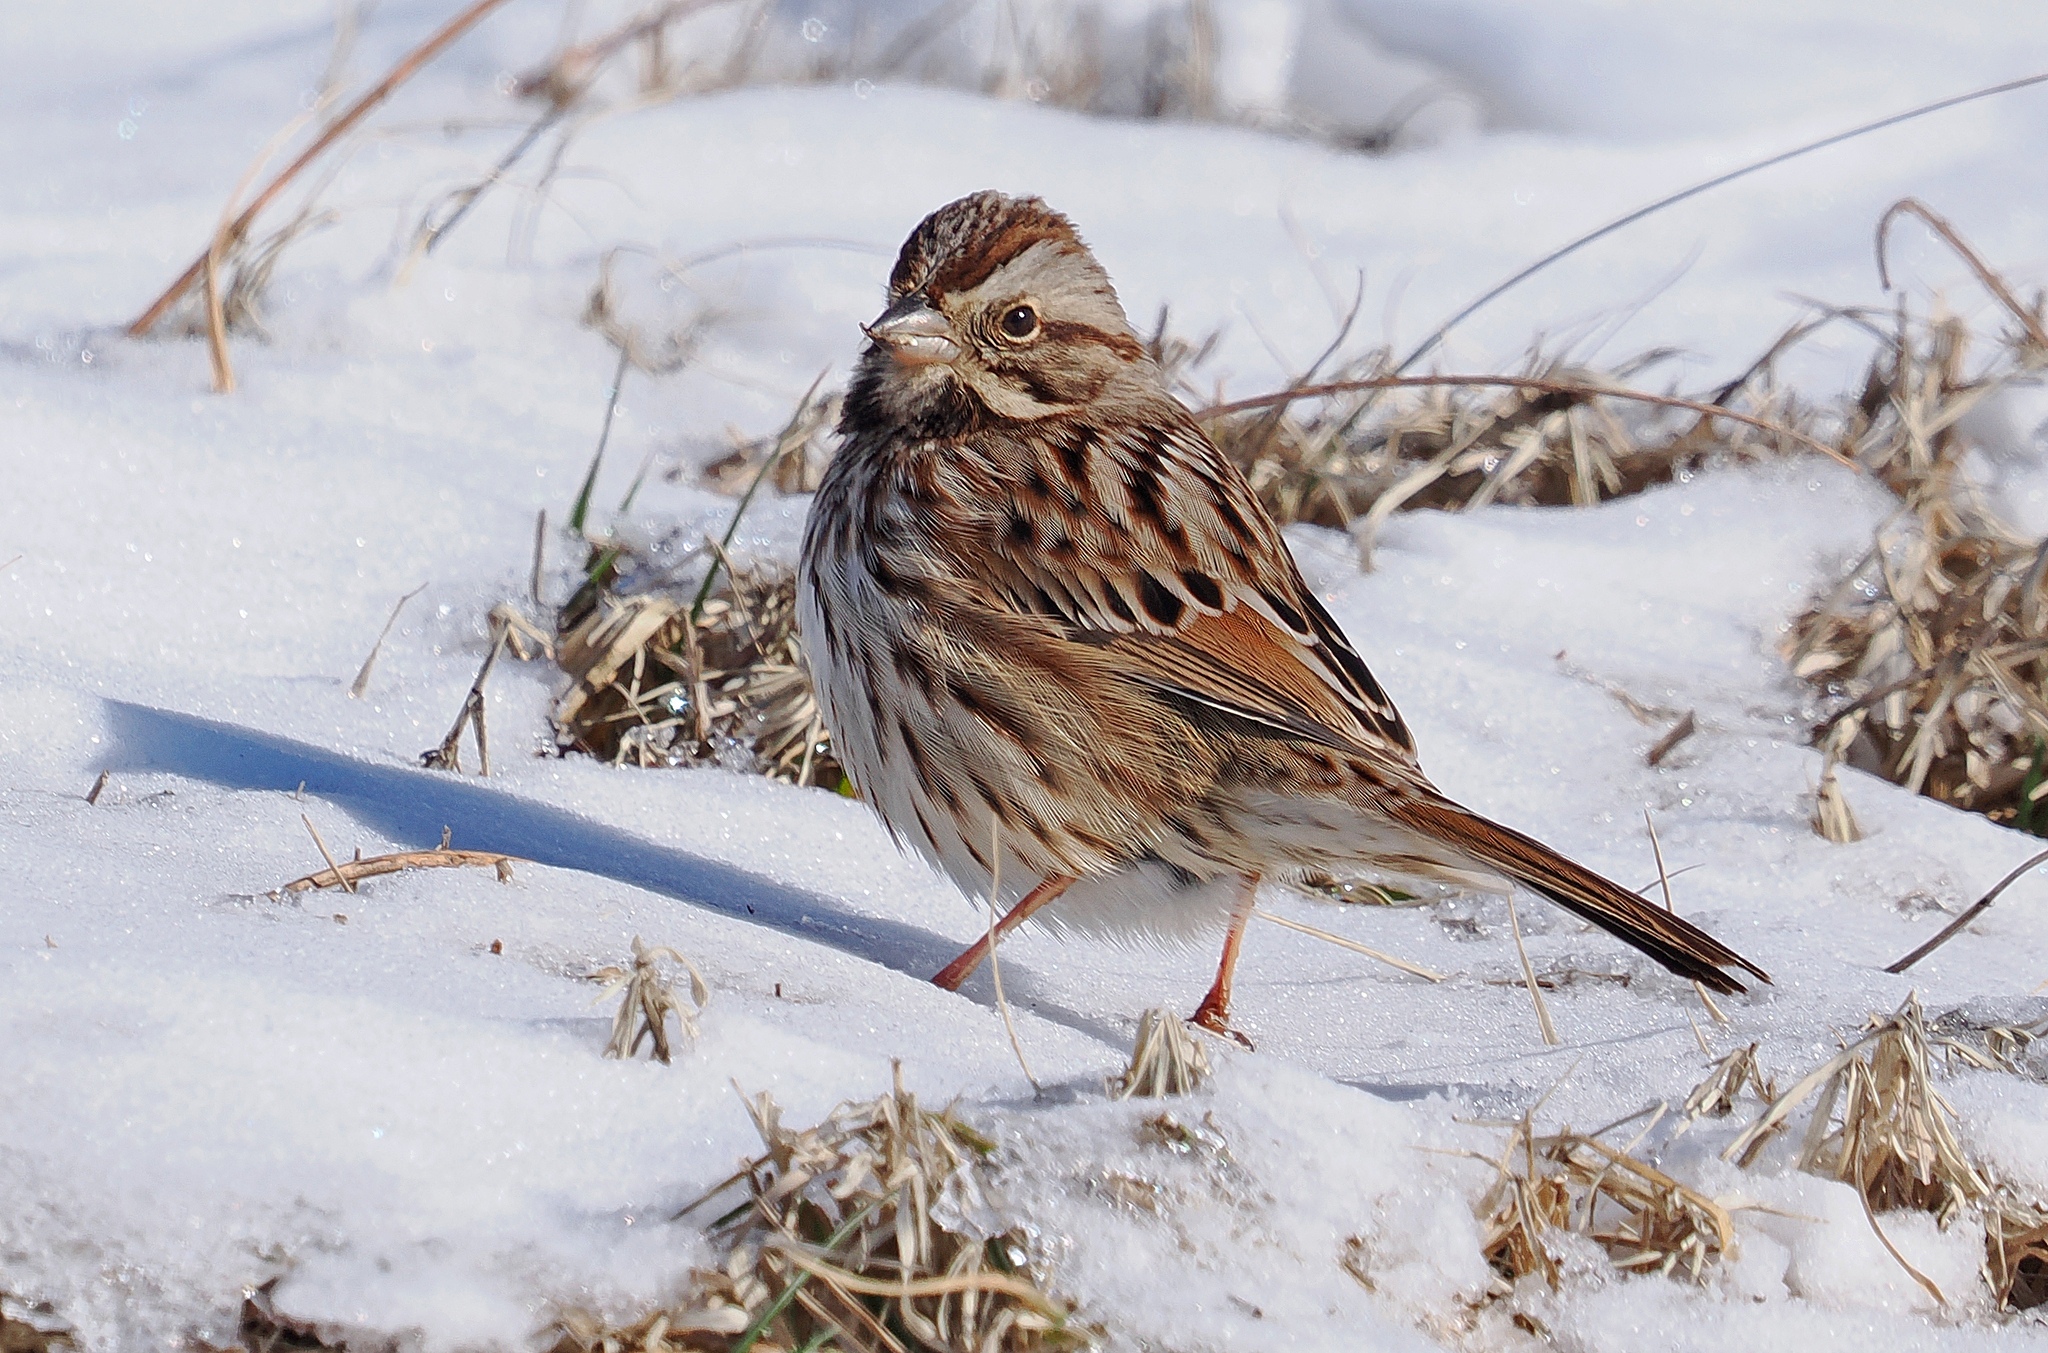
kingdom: Animalia
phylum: Chordata
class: Aves
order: Passeriformes
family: Passerellidae
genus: Melospiza
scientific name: Melospiza melodia
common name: Song sparrow
